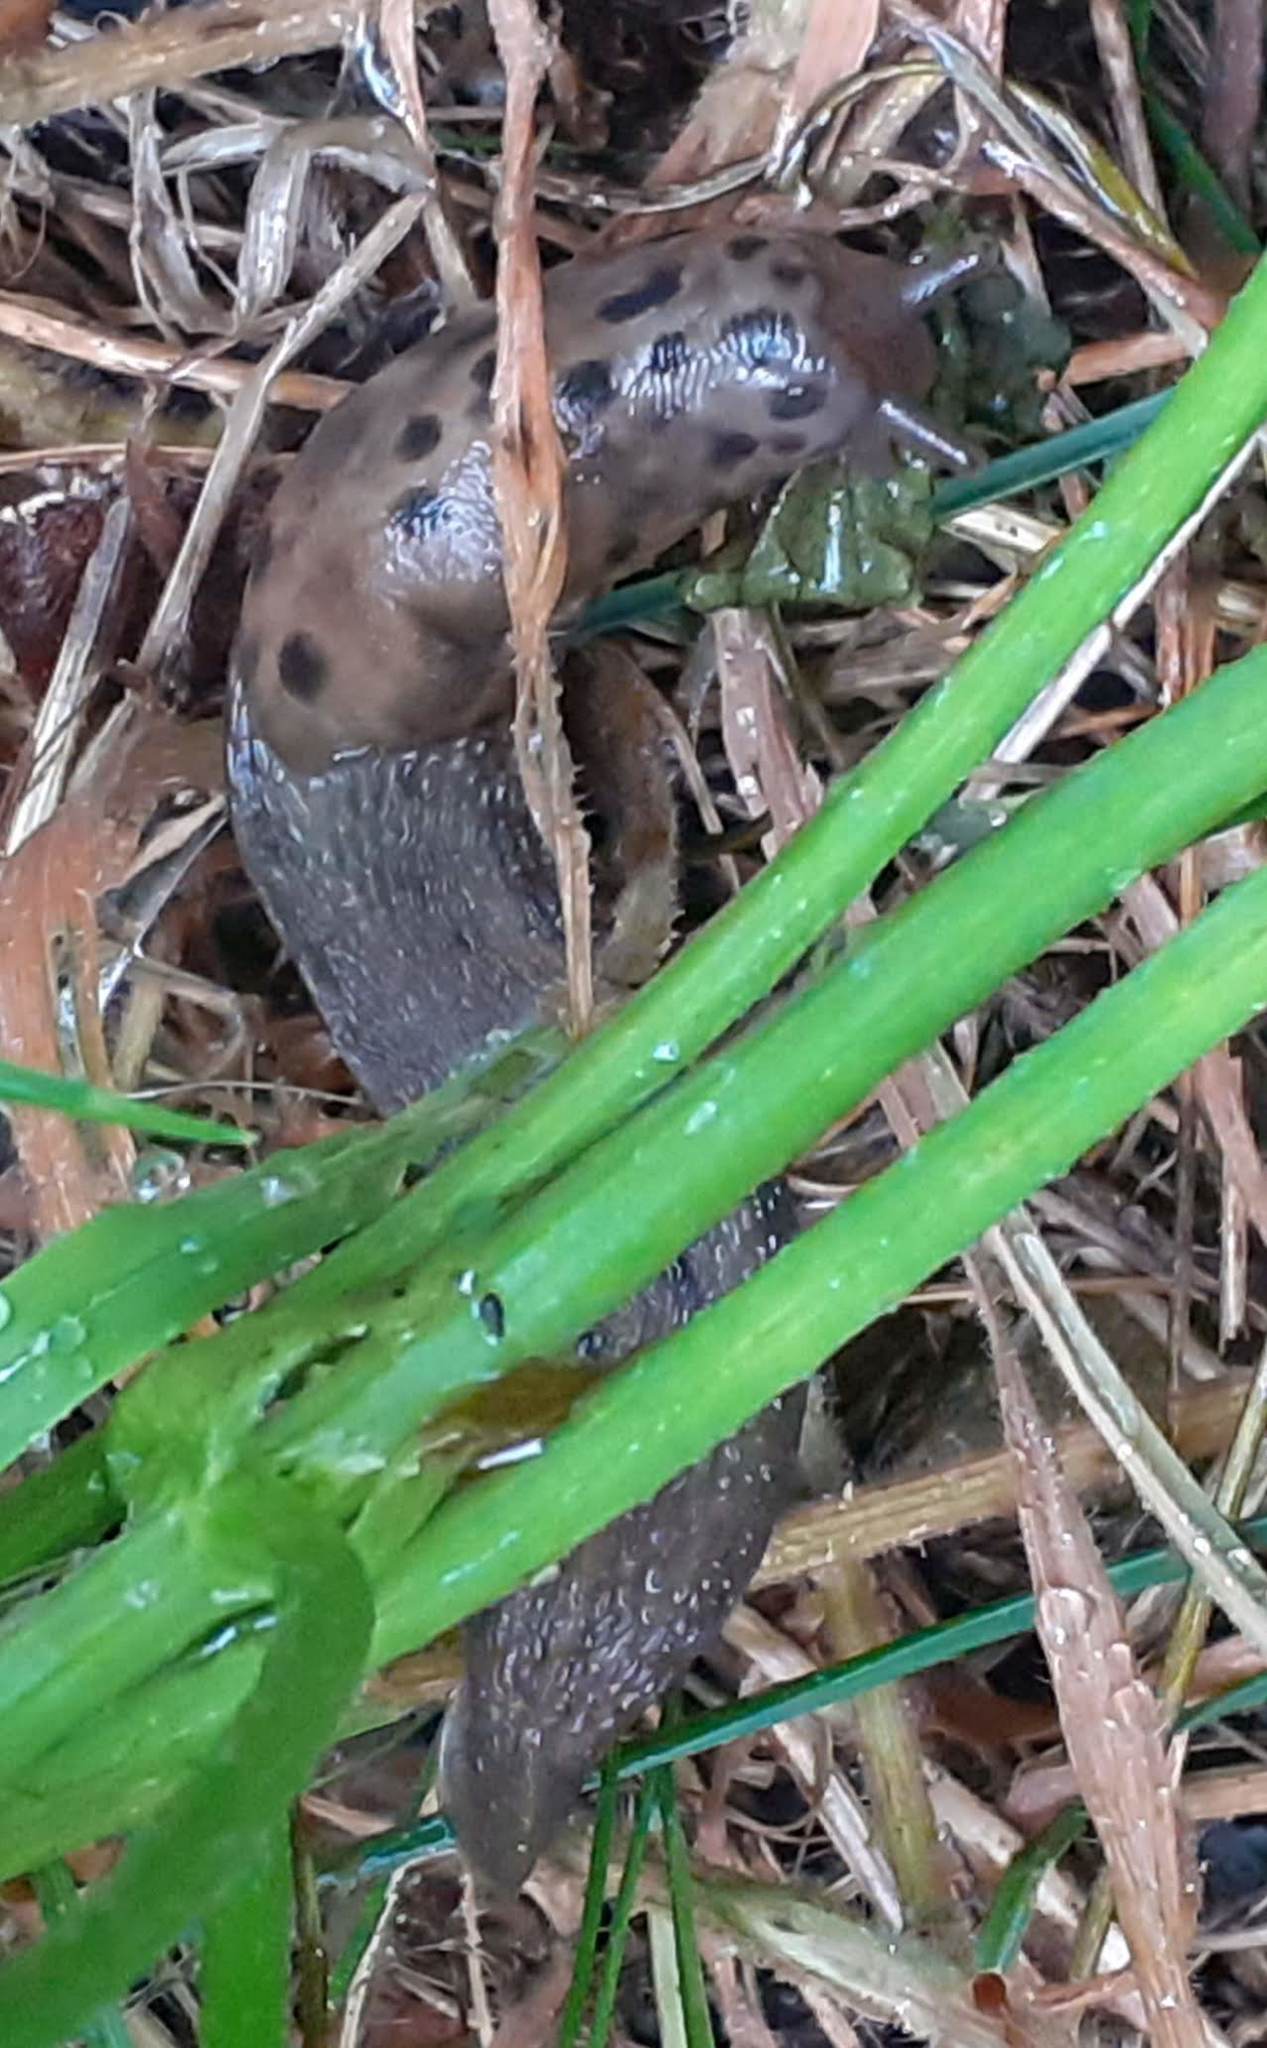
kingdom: Animalia
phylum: Mollusca
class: Gastropoda
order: Stylommatophora
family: Limacidae
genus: Limax
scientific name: Limax maximus
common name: Great grey slug
